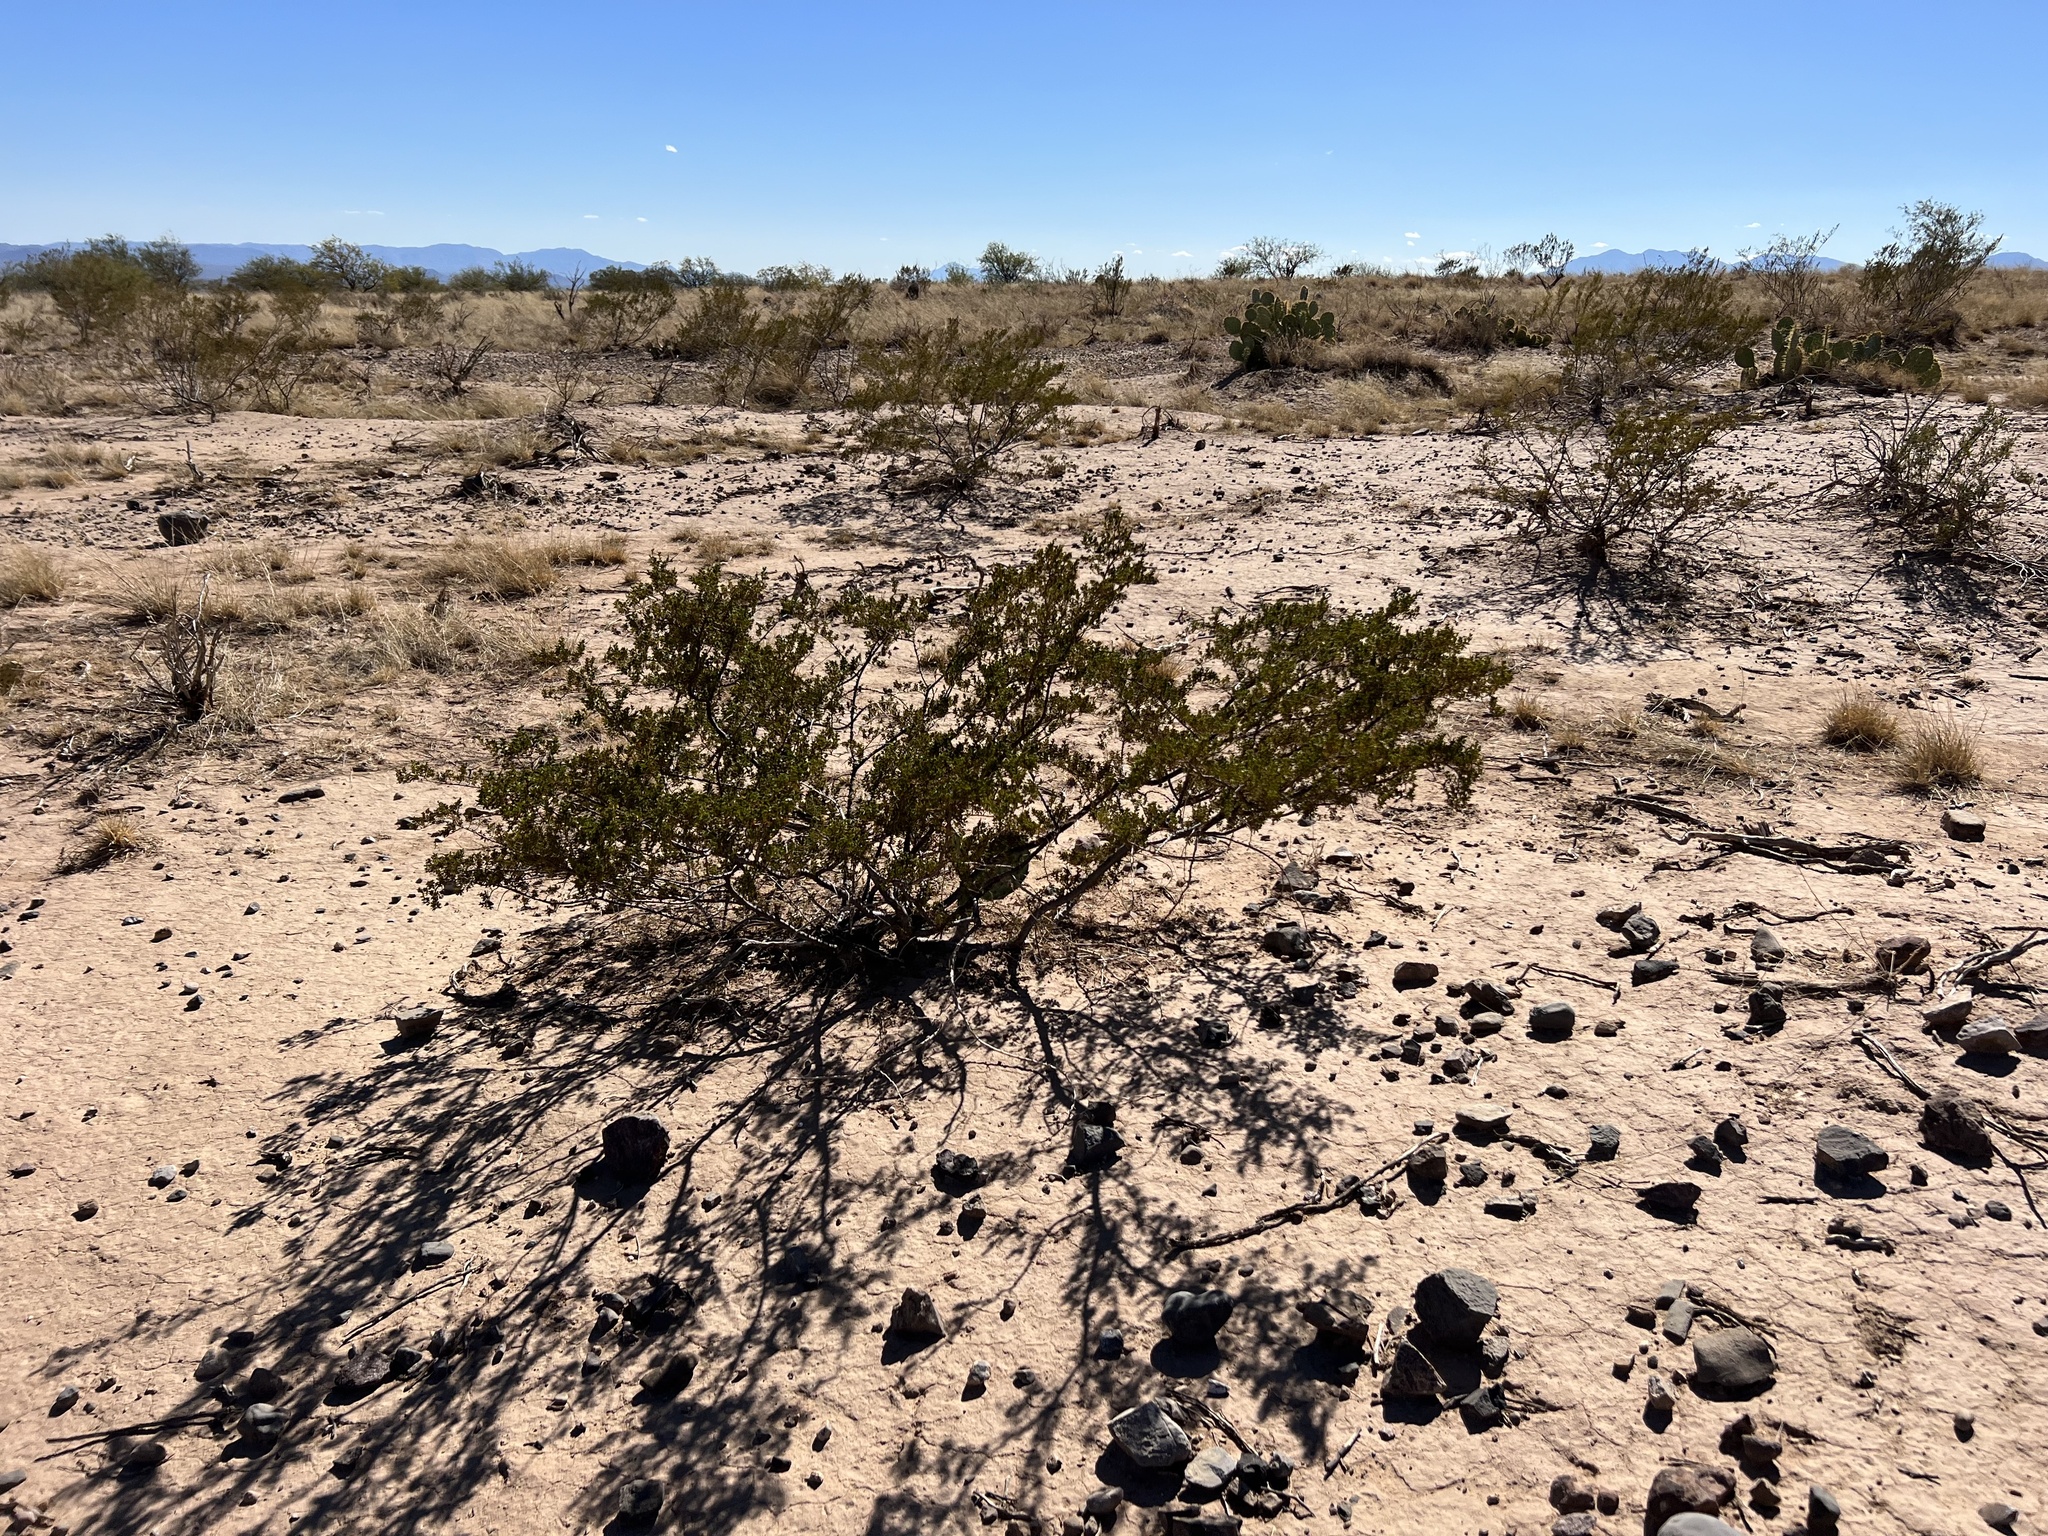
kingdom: Plantae
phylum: Tracheophyta
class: Magnoliopsida
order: Zygophyllales
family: Zygophyllaceae
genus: Larrea
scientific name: Larrea tridentata
